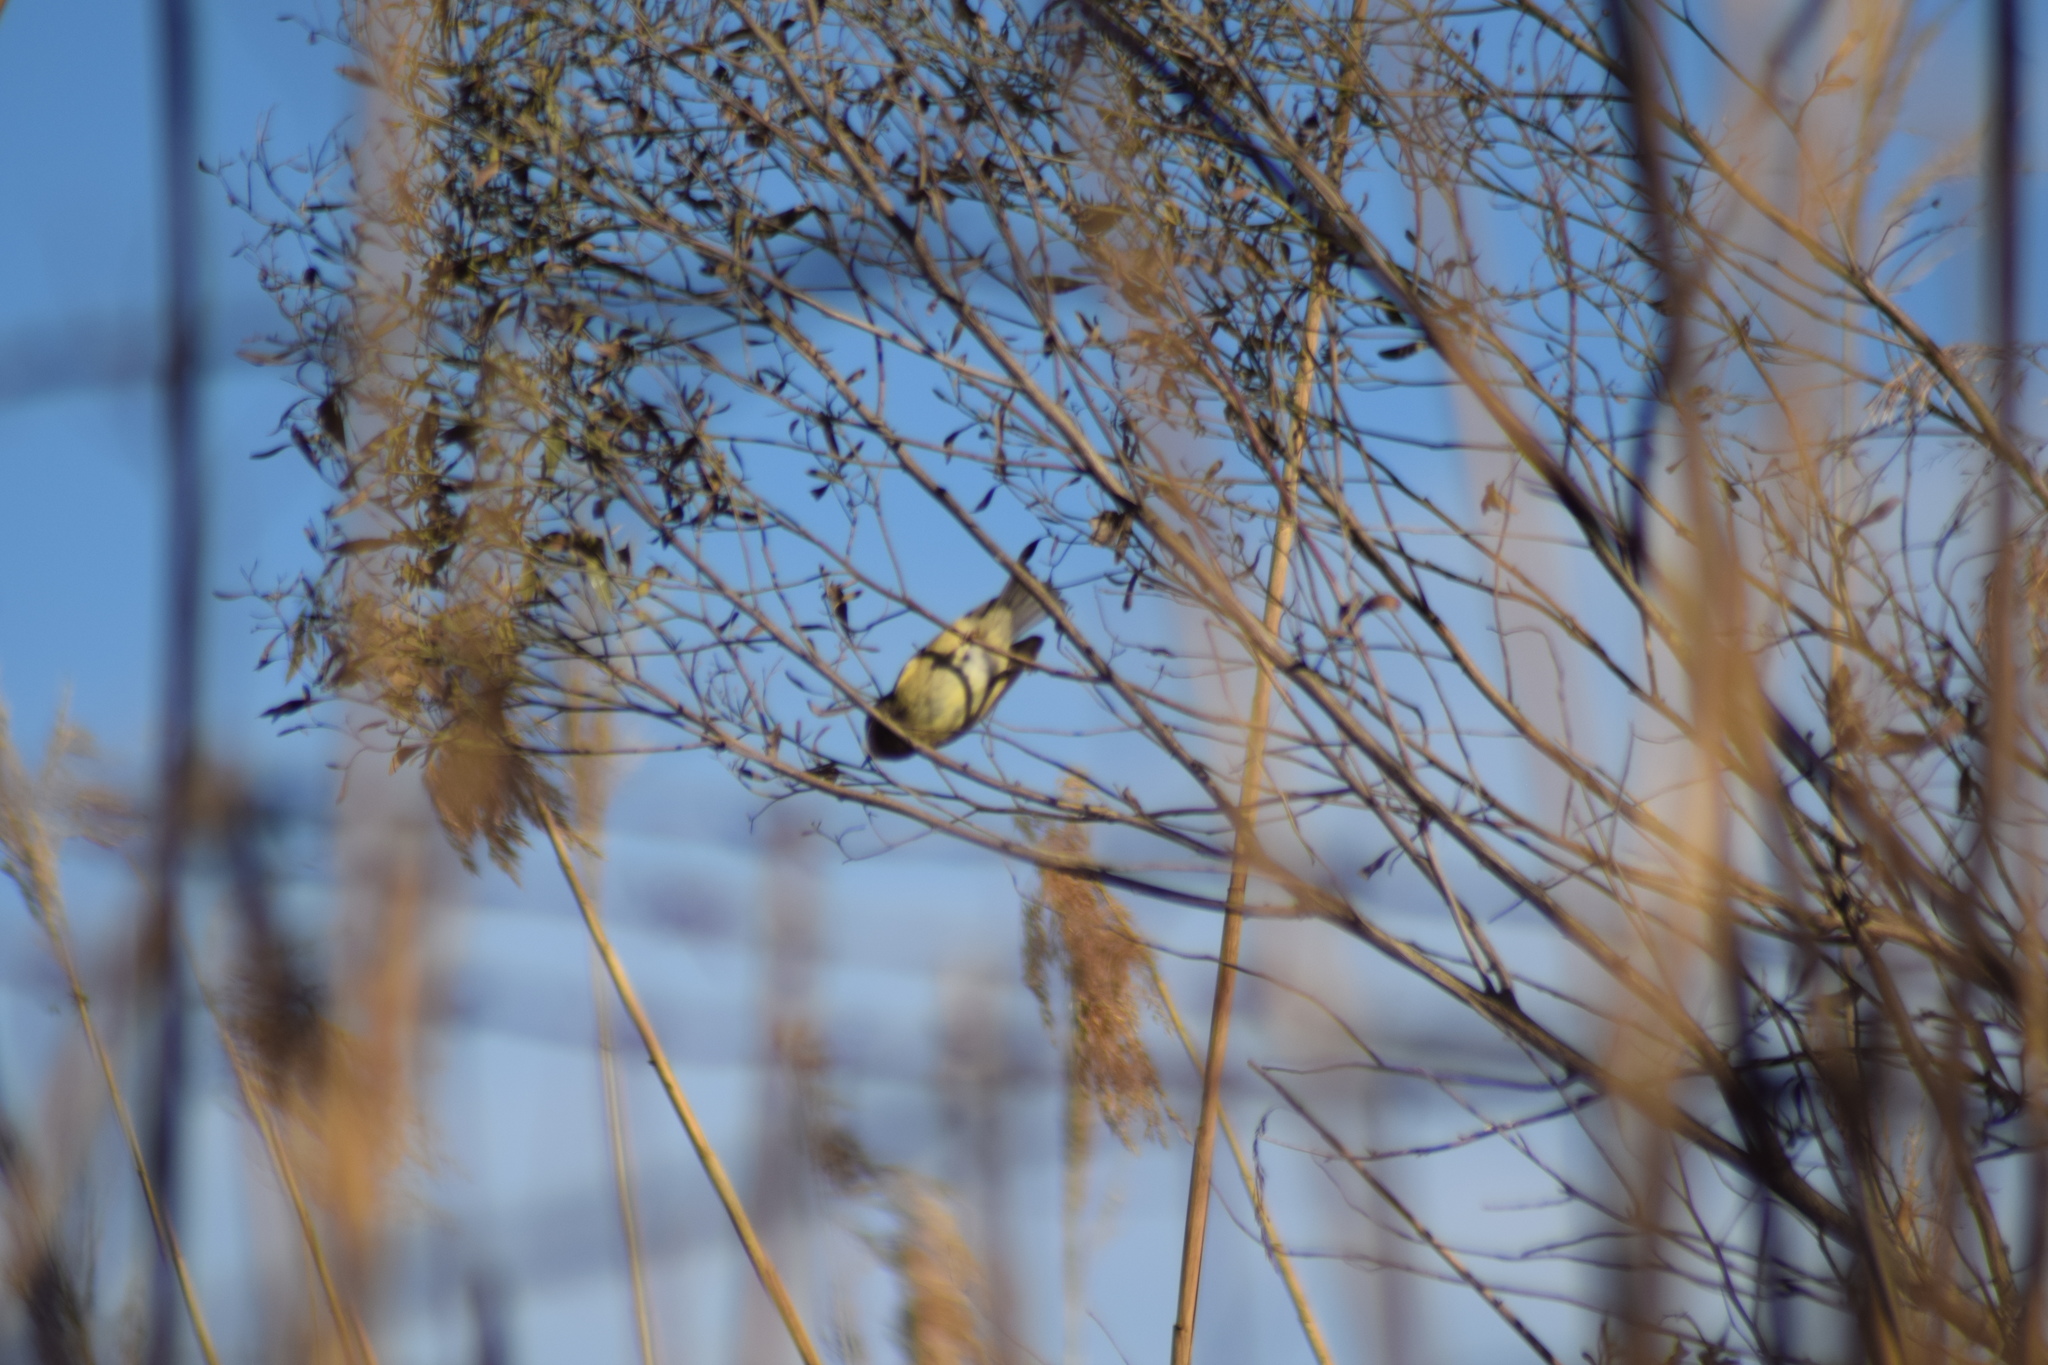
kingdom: Animalia
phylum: Chordata
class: Aves
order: Passeriformes
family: Regulidae
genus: Regulus
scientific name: Regulus calendula
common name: Ruby-crowned kinglet
